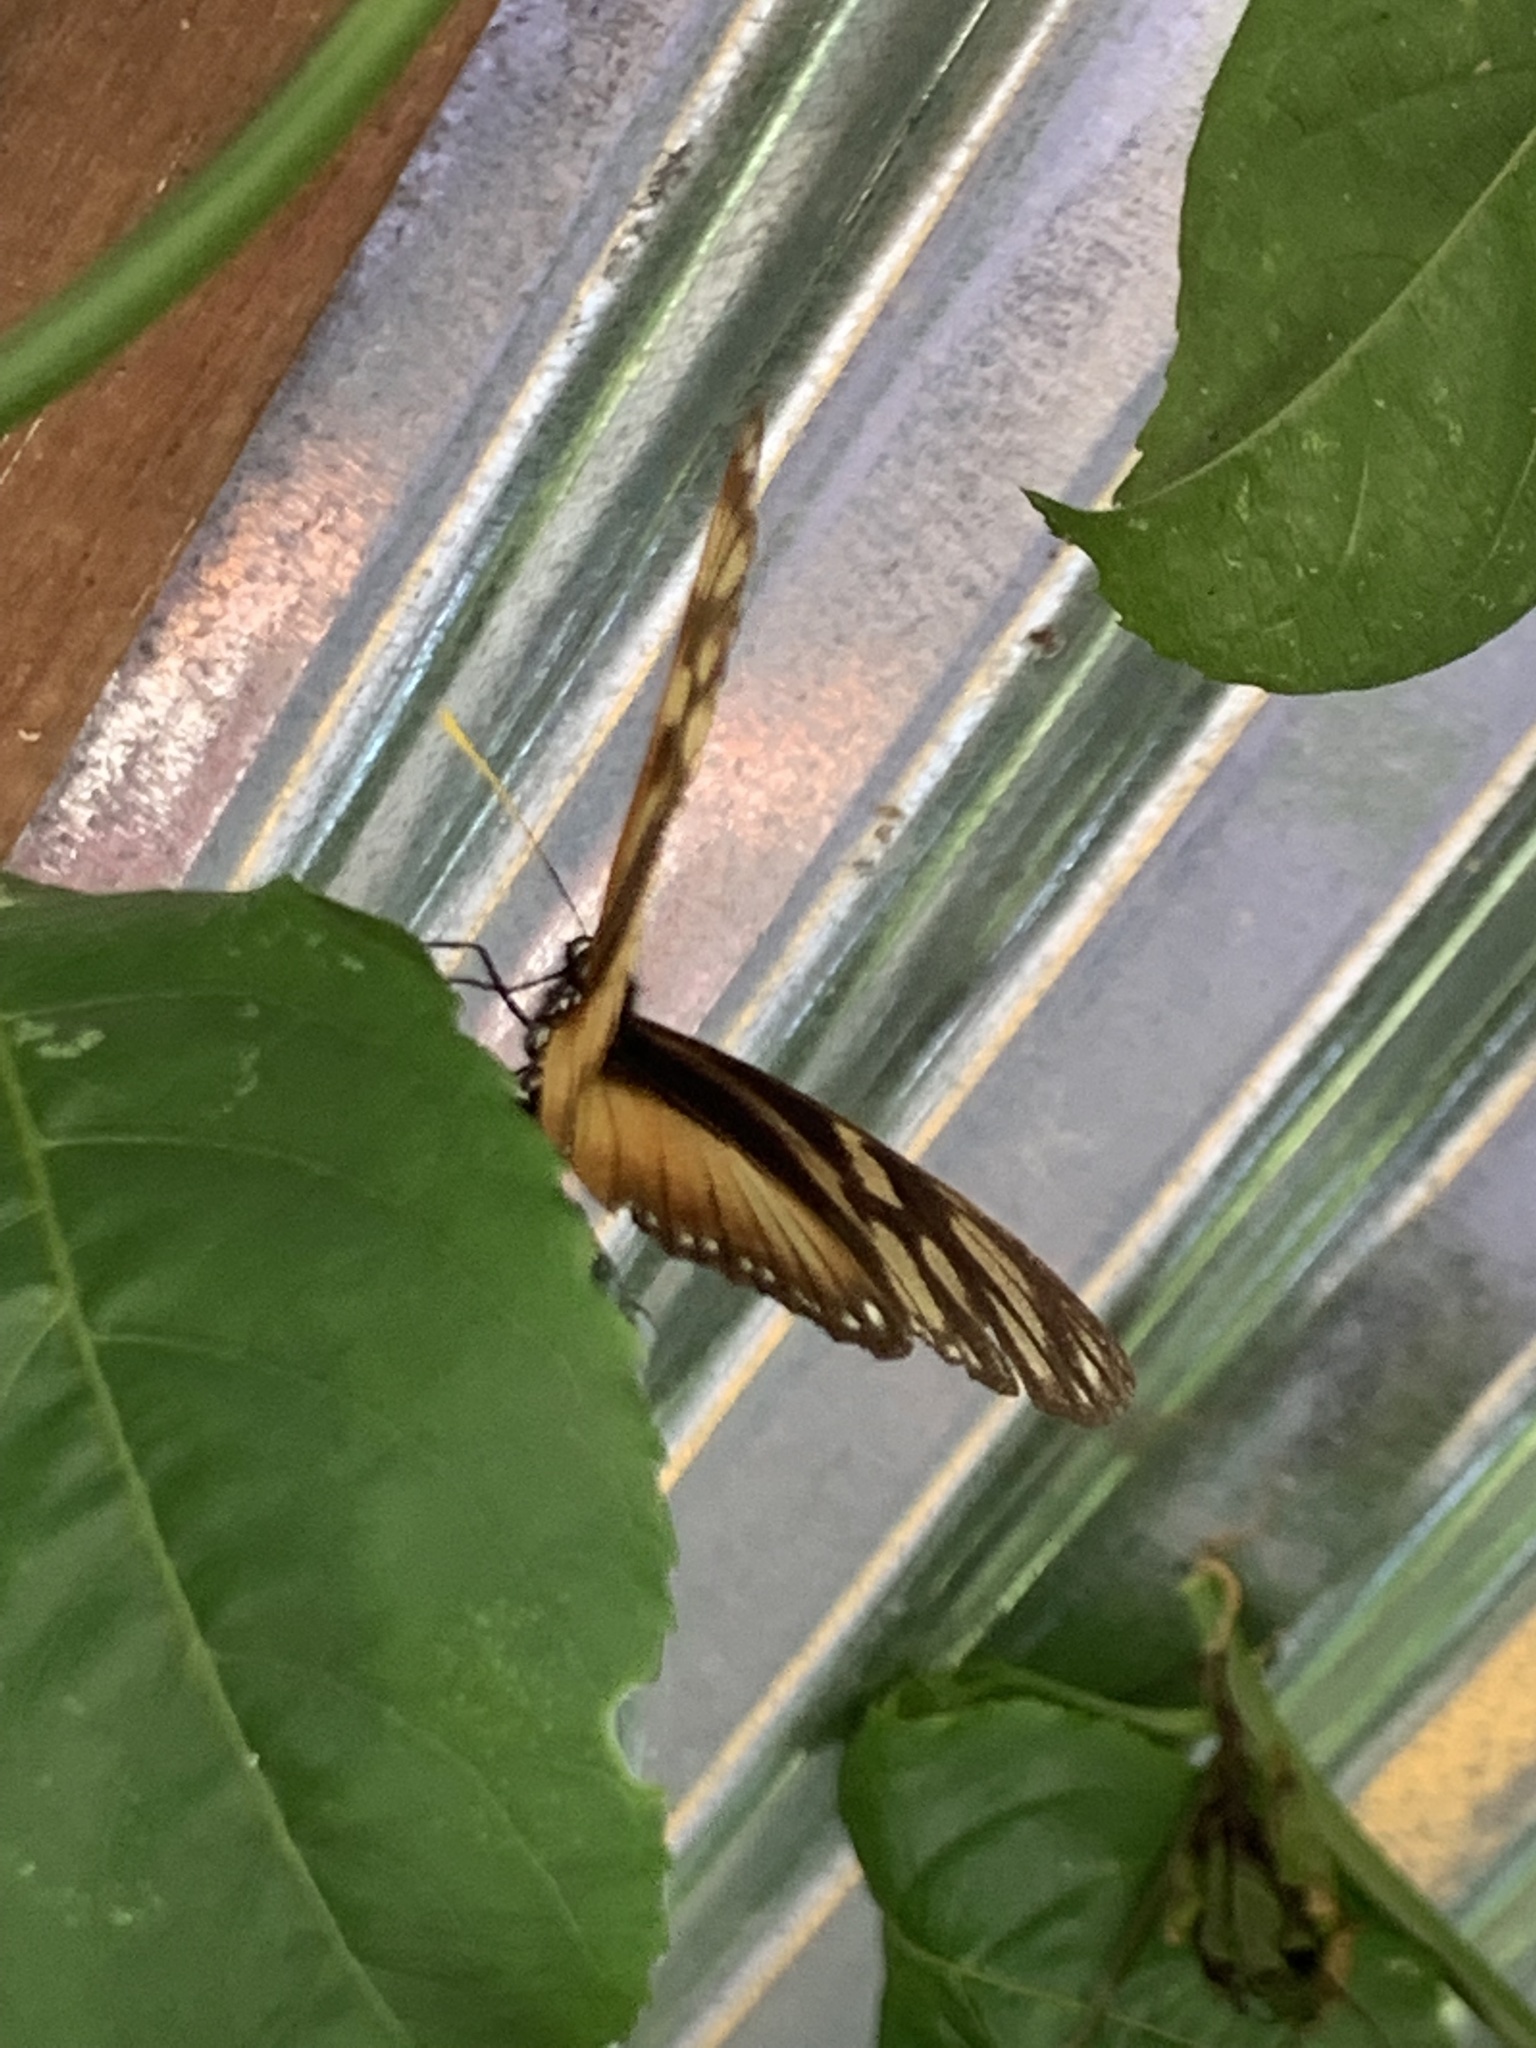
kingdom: Animalia
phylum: Arthropoda
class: Insecta
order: Lepidoptera
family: Nymphalidae
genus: Eueides
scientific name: Eueides procula
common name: Nonpassionate heliconian
